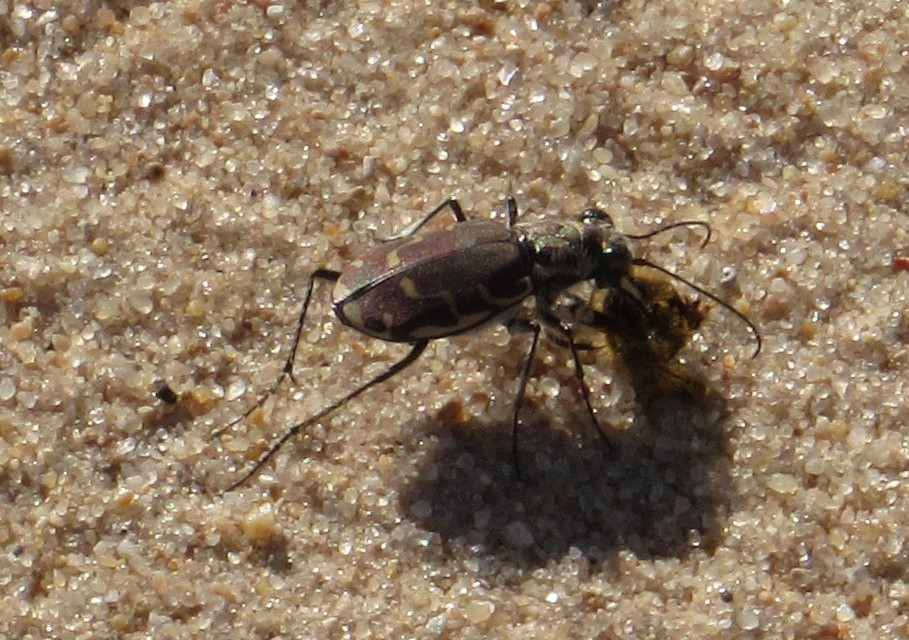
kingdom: Animalia
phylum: Arthropoda
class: Insecta
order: Coleoptera
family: Carabidae
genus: Cicindela
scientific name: Cicindela repanda
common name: Bronzed tiger beetle
